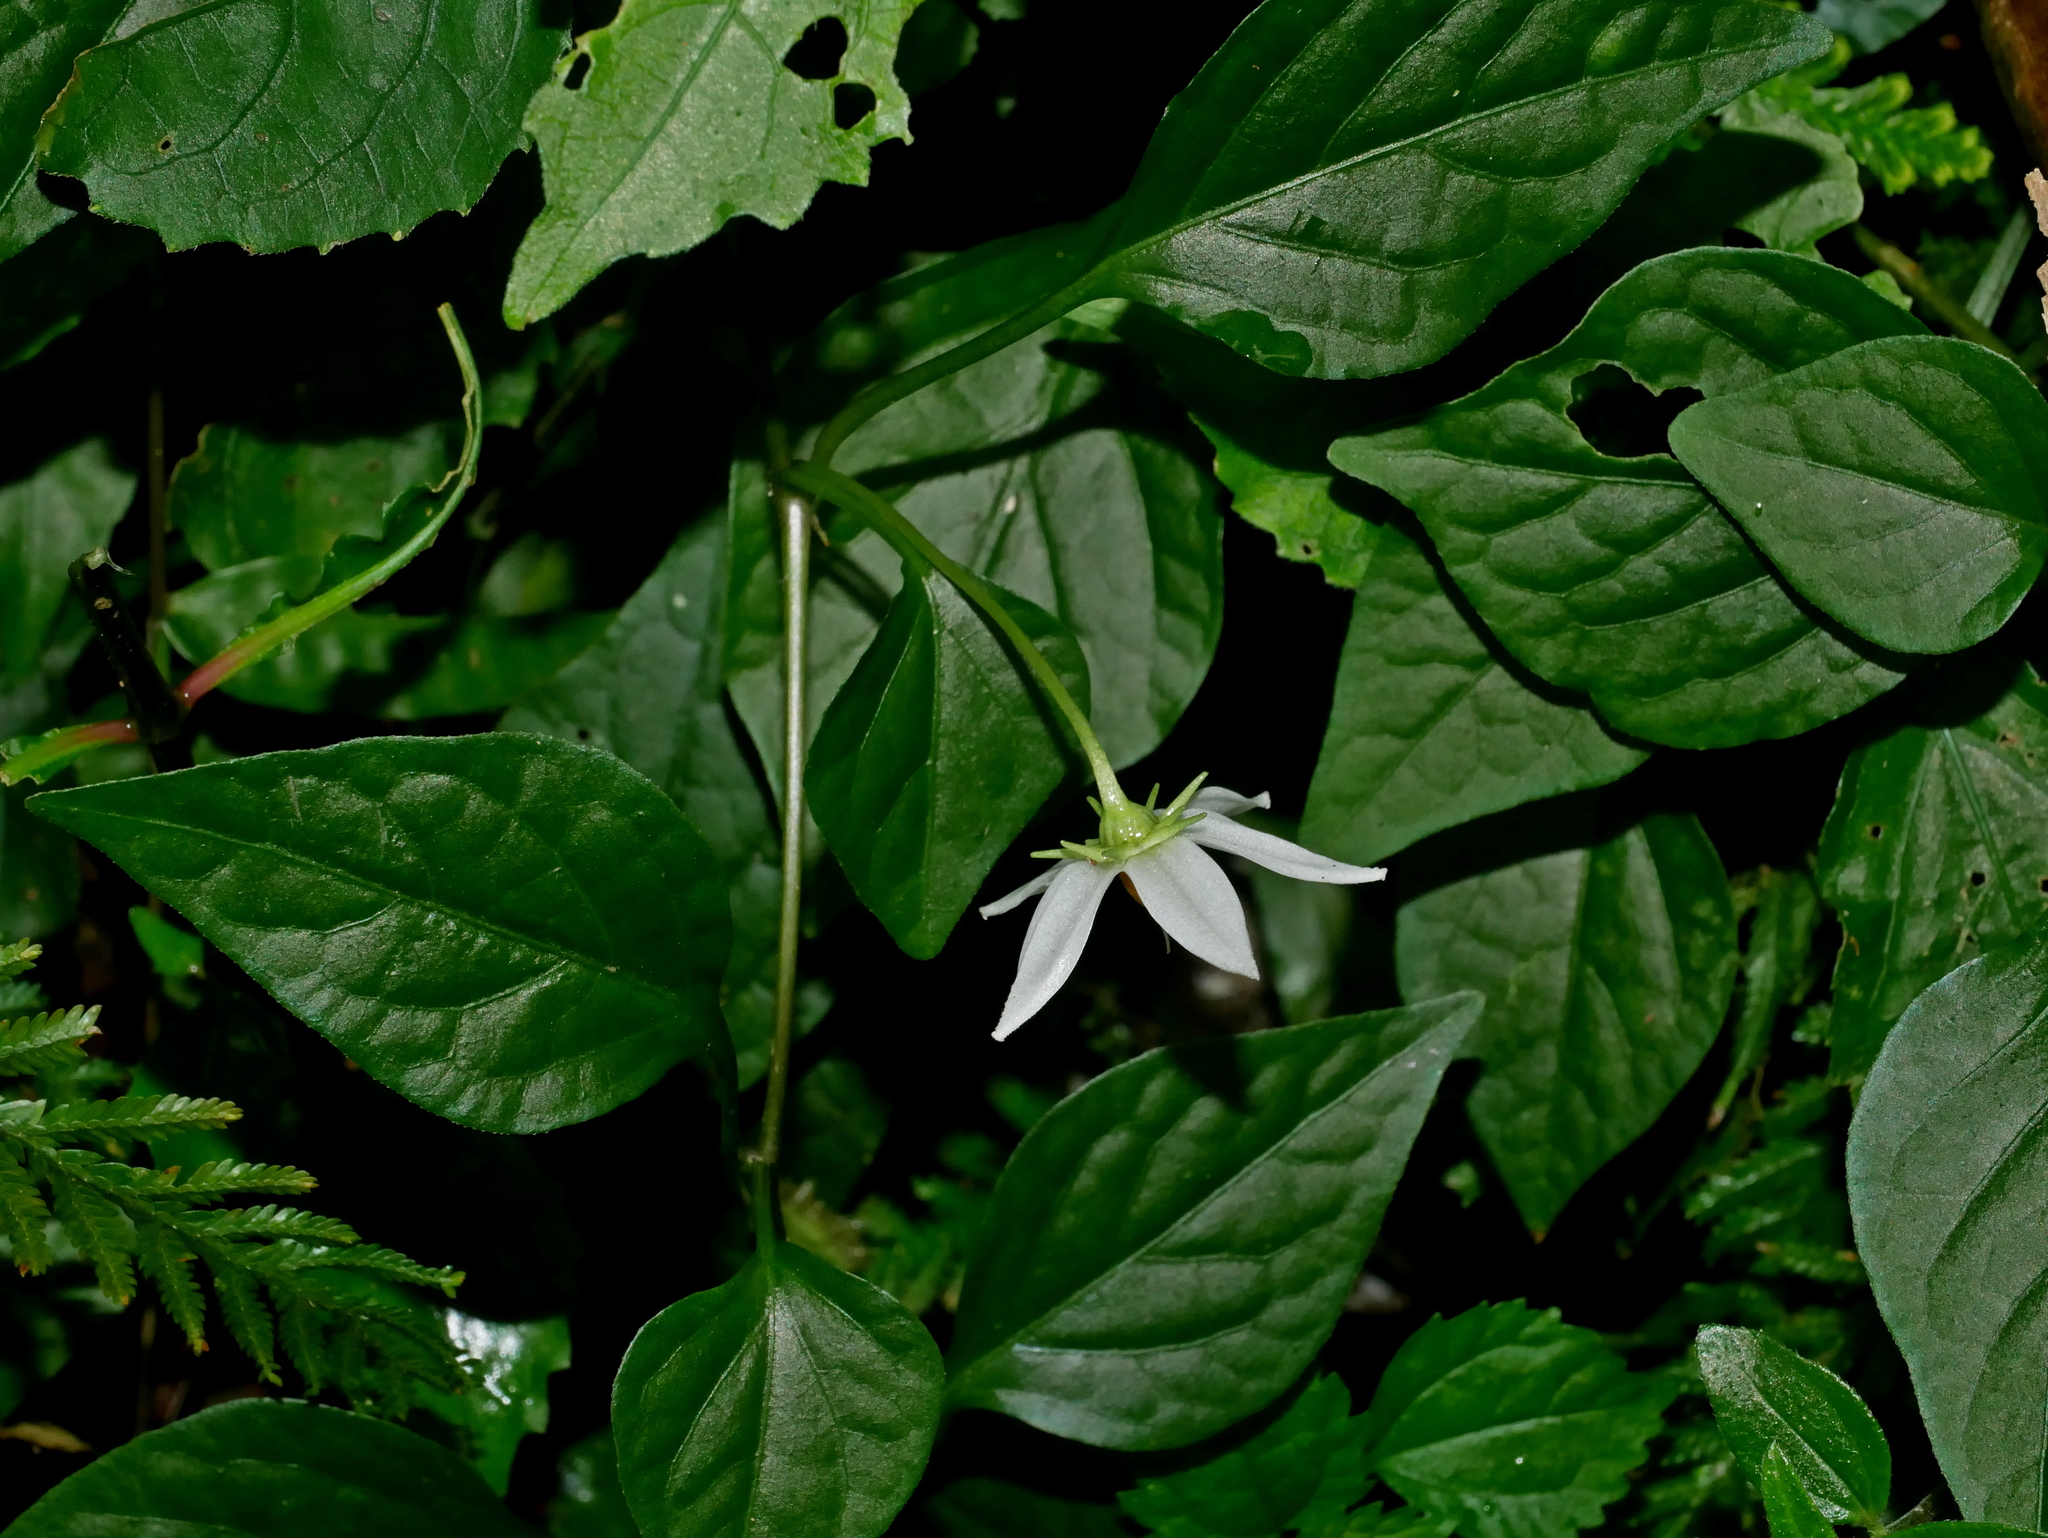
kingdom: Plantae
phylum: Tracheophyta
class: Magnoliopsida
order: Solanales
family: Solanaceae
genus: Lycianthes
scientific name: Lycianthes lysimachioides
